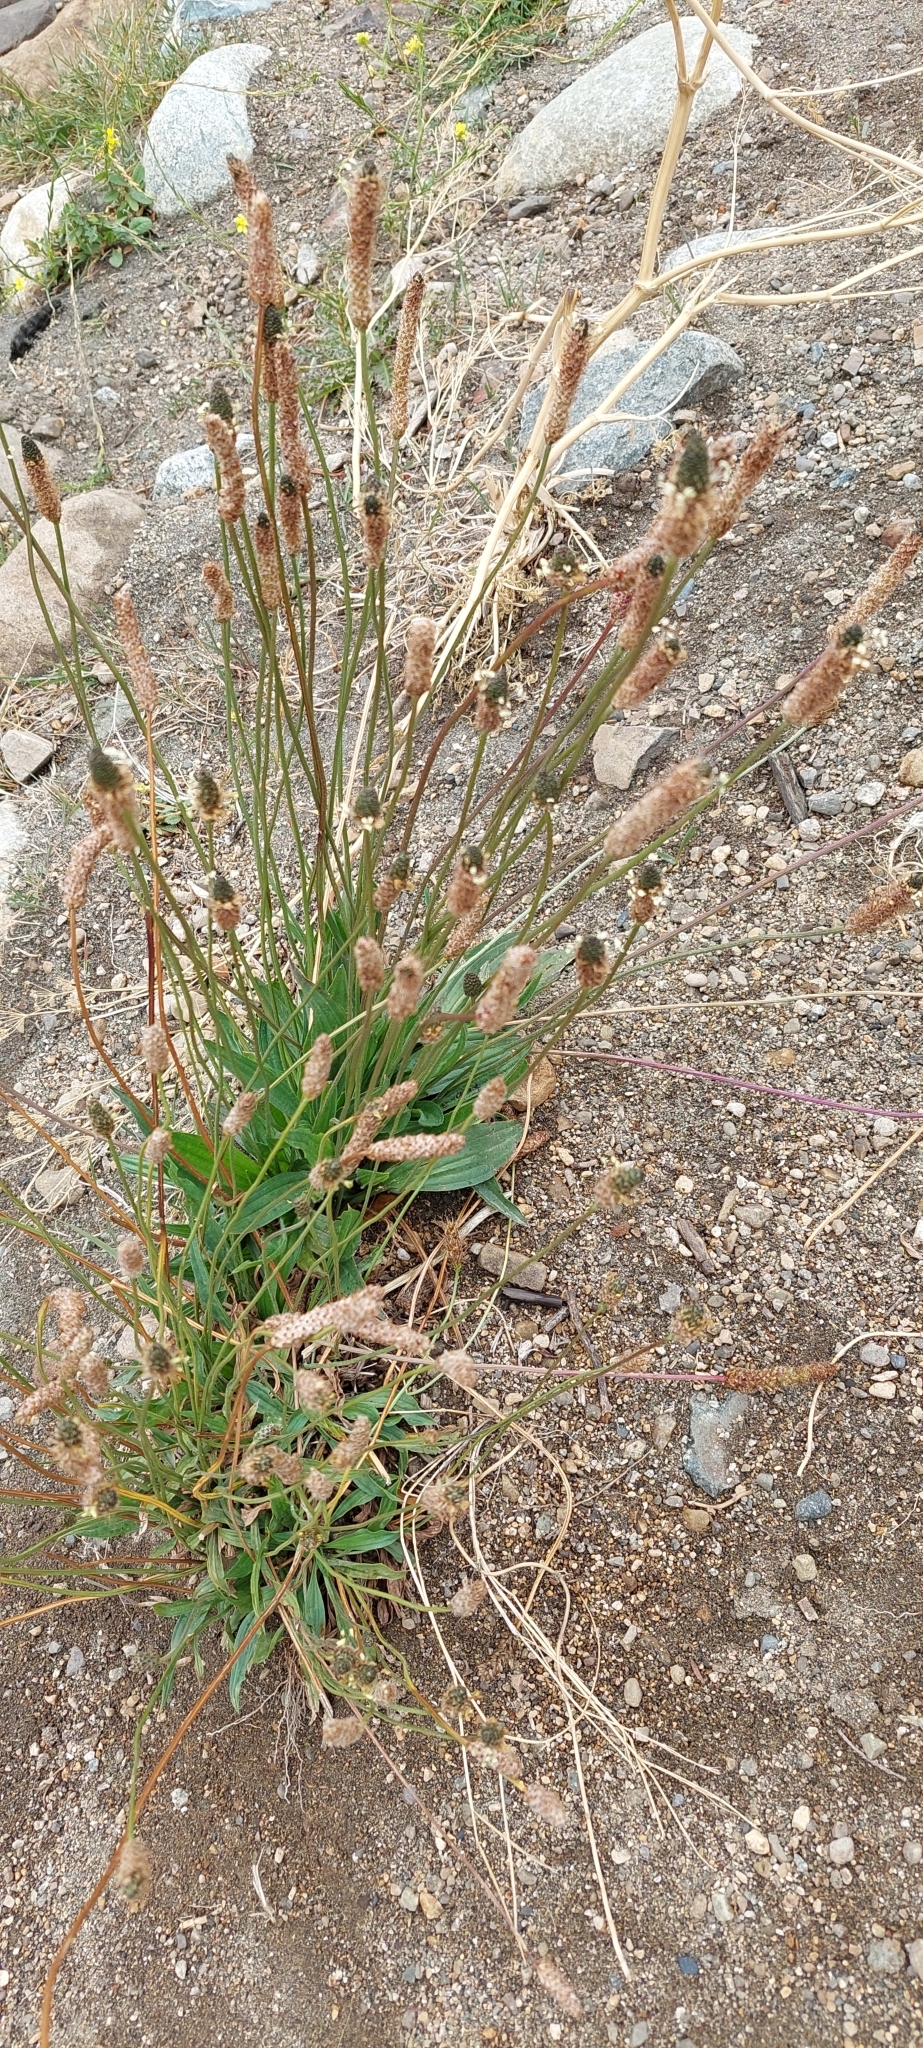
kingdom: Plantae
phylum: Tracheophyta
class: Magnoliopsida
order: Lamiales
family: Plantaginaceae
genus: Plantago
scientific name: Plantago lanceolata
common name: Ribwort plantain
